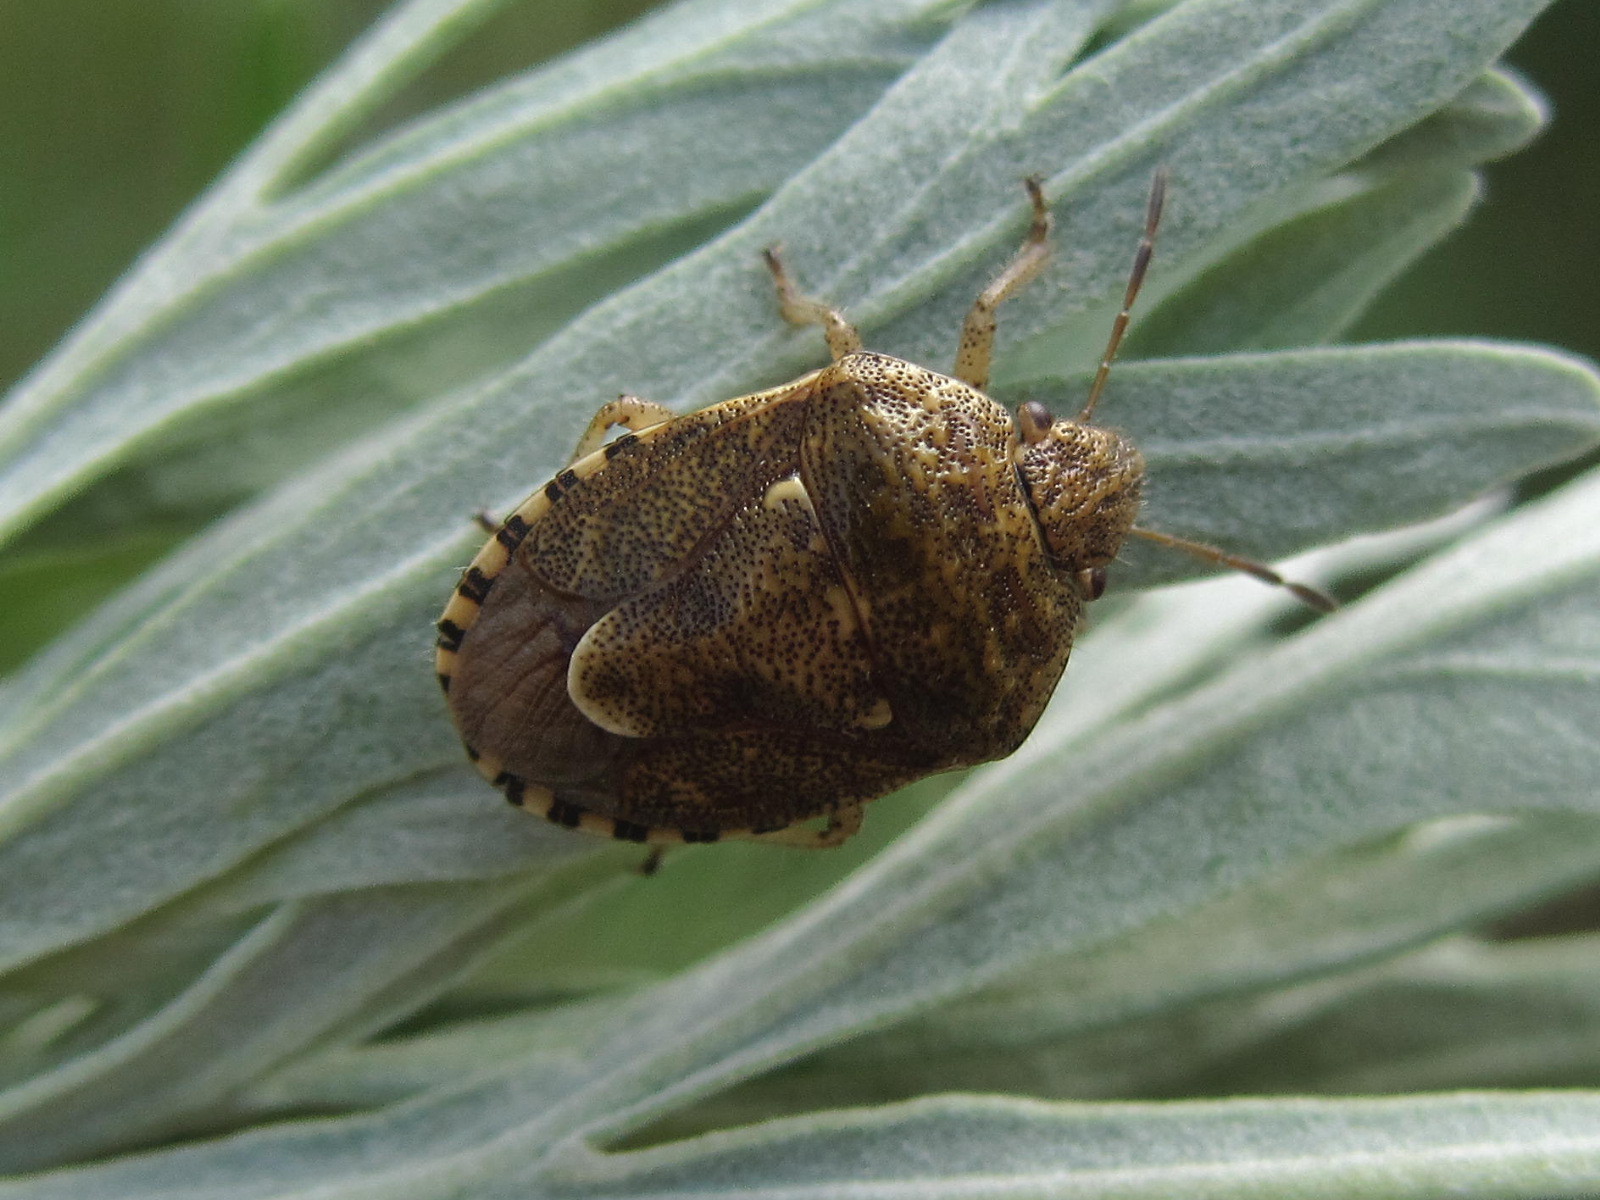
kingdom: Animalia
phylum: Arthropoda
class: Insecta
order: Hemiptera
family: Pentatomidae
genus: Staria
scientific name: Staria lunata
